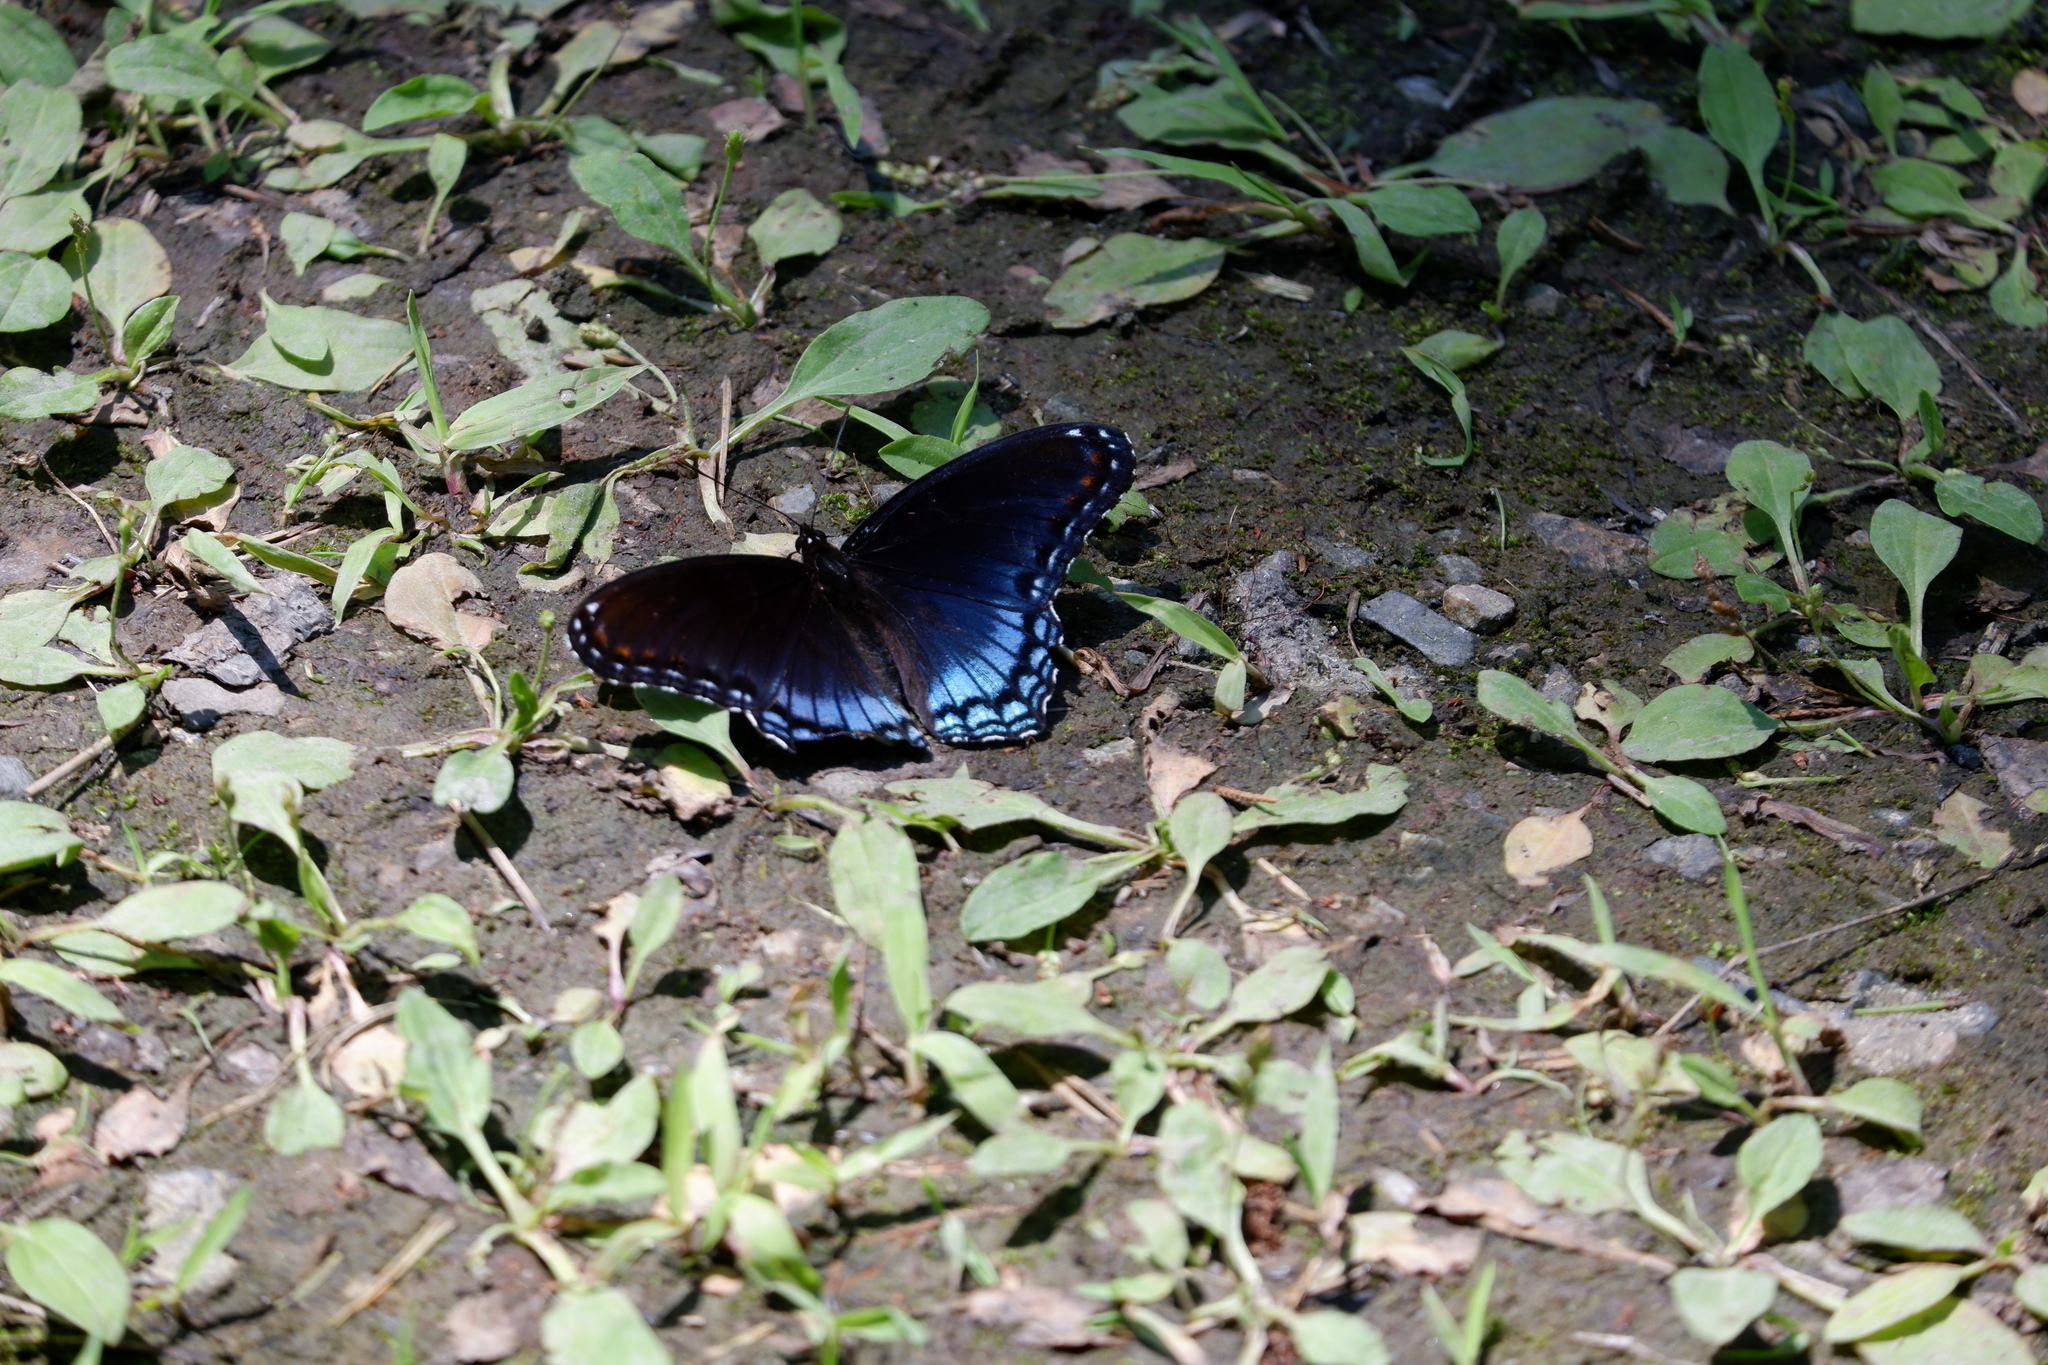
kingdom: Animalia
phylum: Arthropoda
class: Insecta
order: Lepidoptera
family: Nymphalidae
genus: Limenitis
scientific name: Limenitis astyanax
